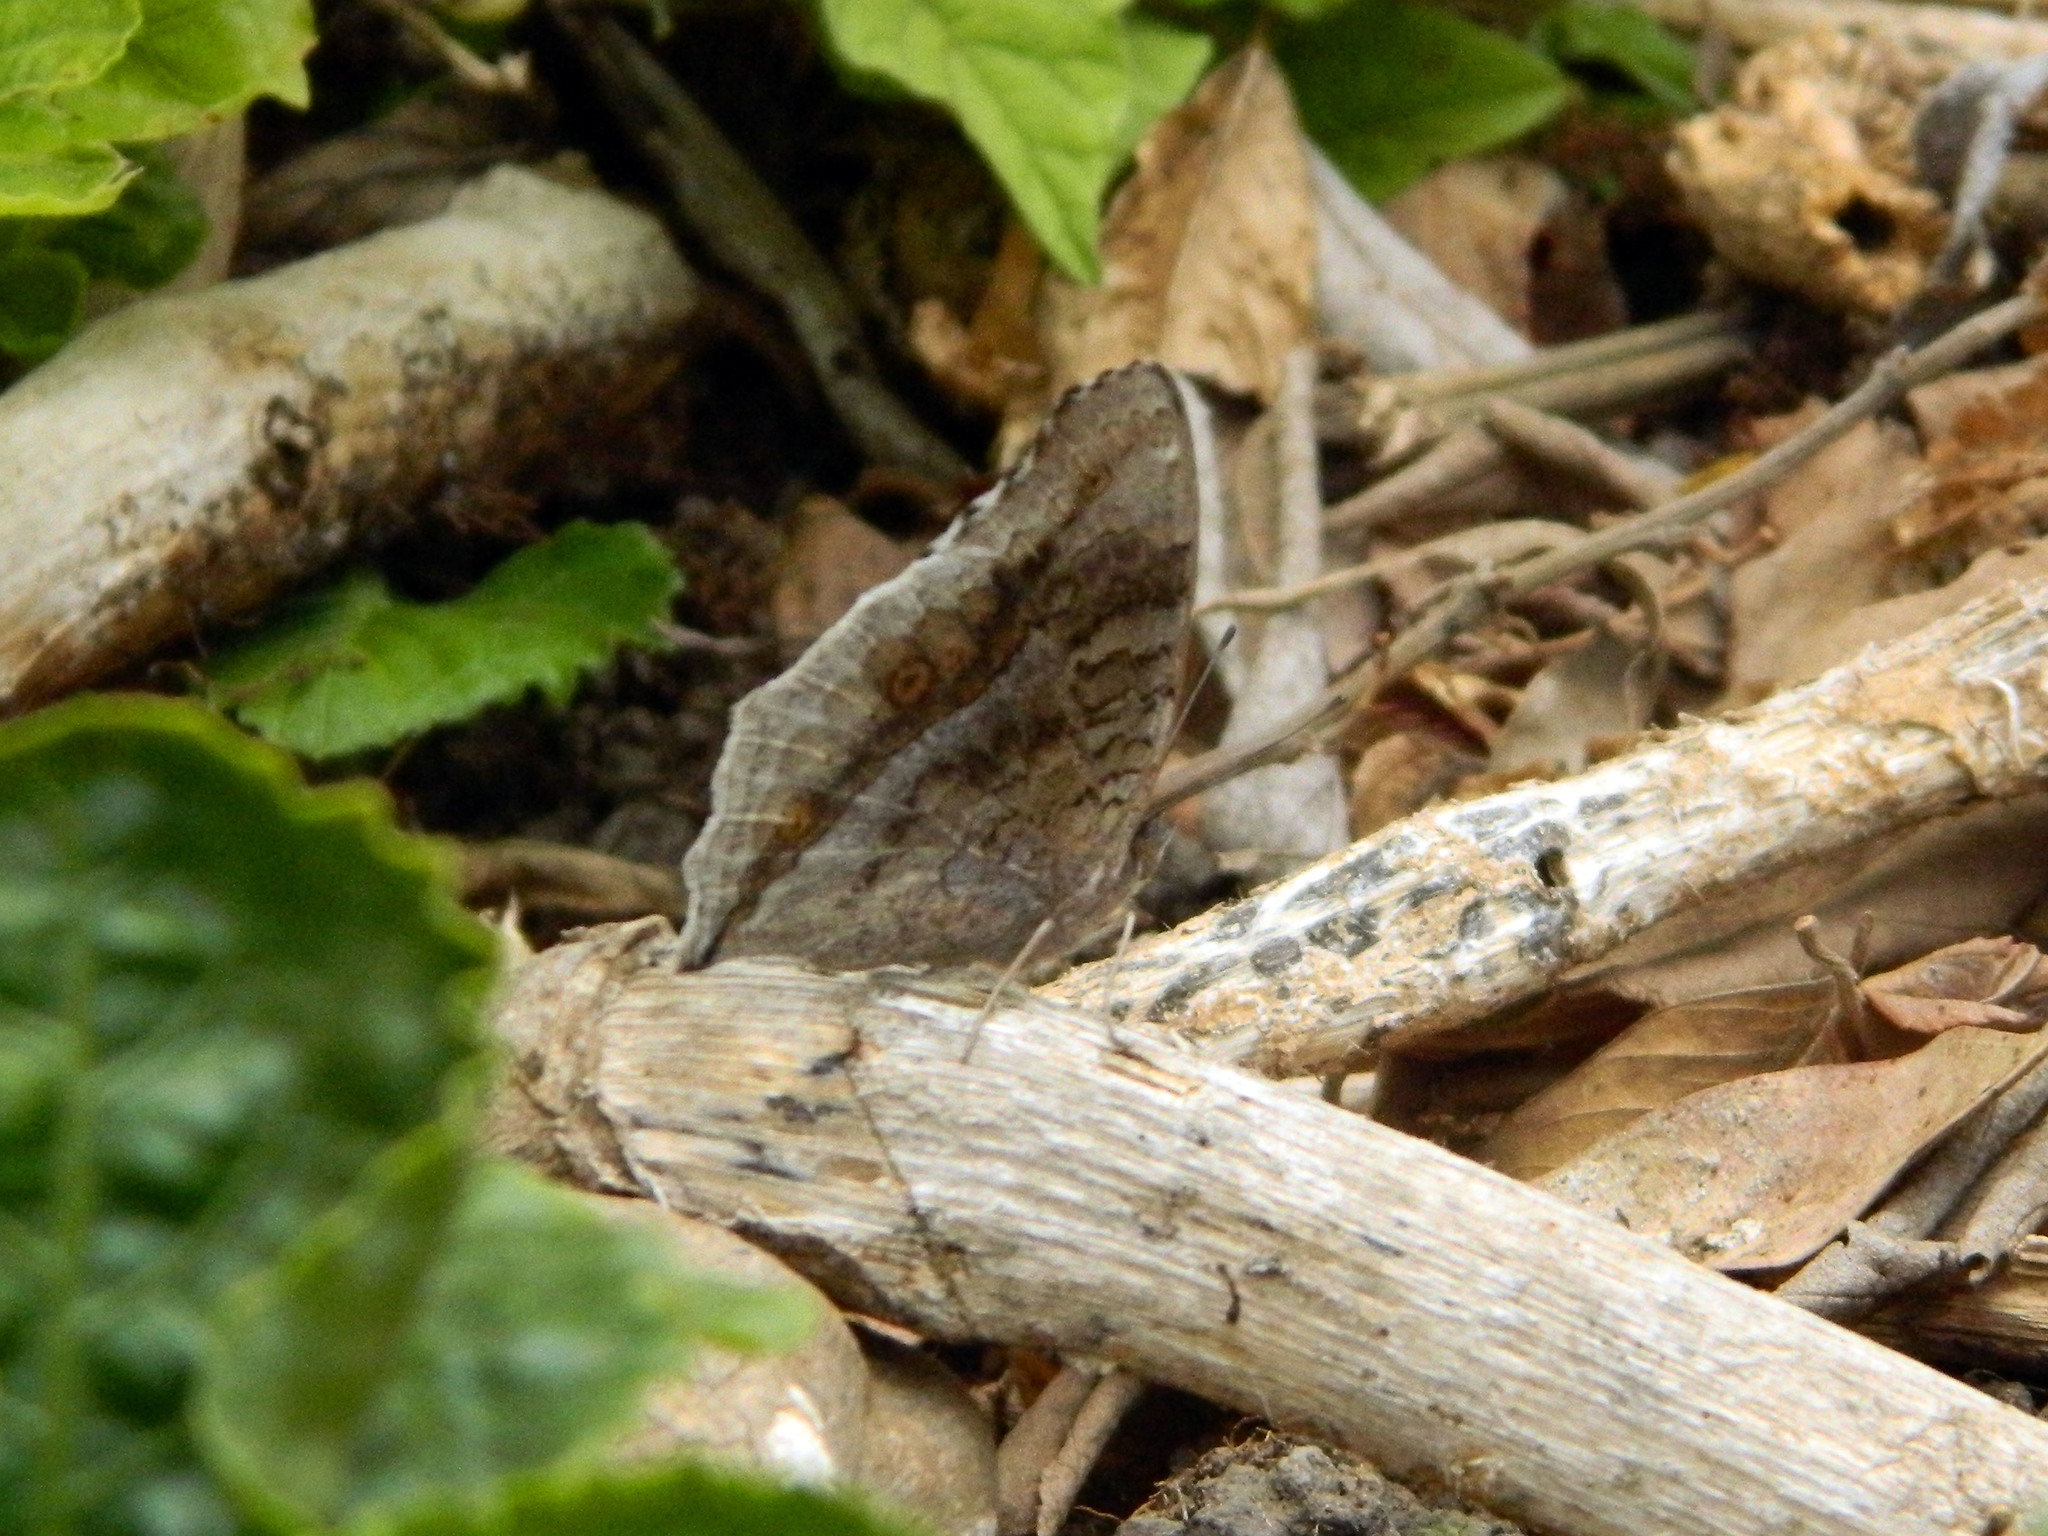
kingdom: Animalia
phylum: Arthropoda
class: Insecta
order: Lepidoptera
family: Nymphalidae
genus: Junonia
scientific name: Junonia rhadama
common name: Royal blue pansy
